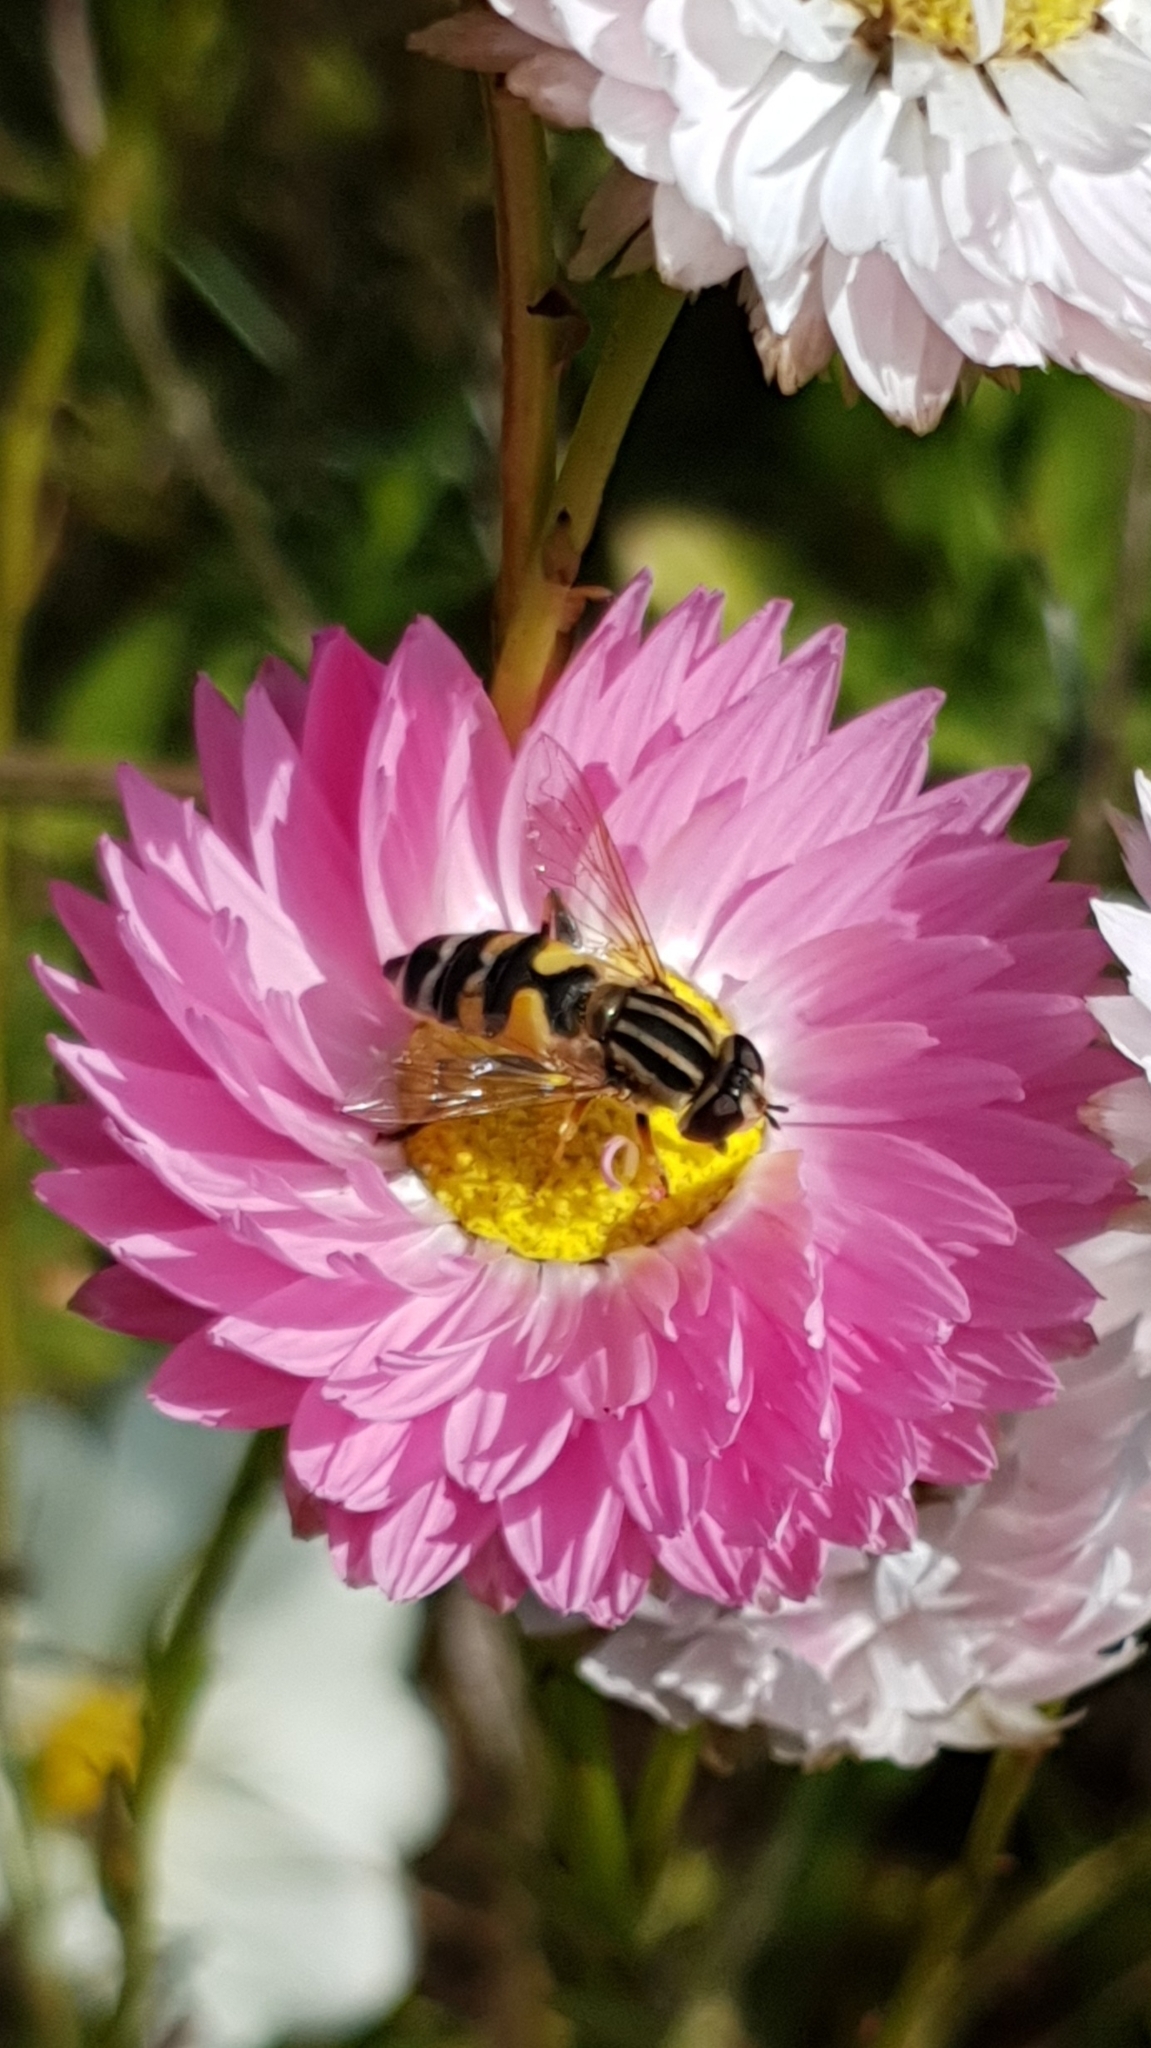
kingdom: Animalia
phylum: Arthropoda
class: Insecta
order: Diptera
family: Syrphidae
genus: Helophilus
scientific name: Helophilus trivittatus
